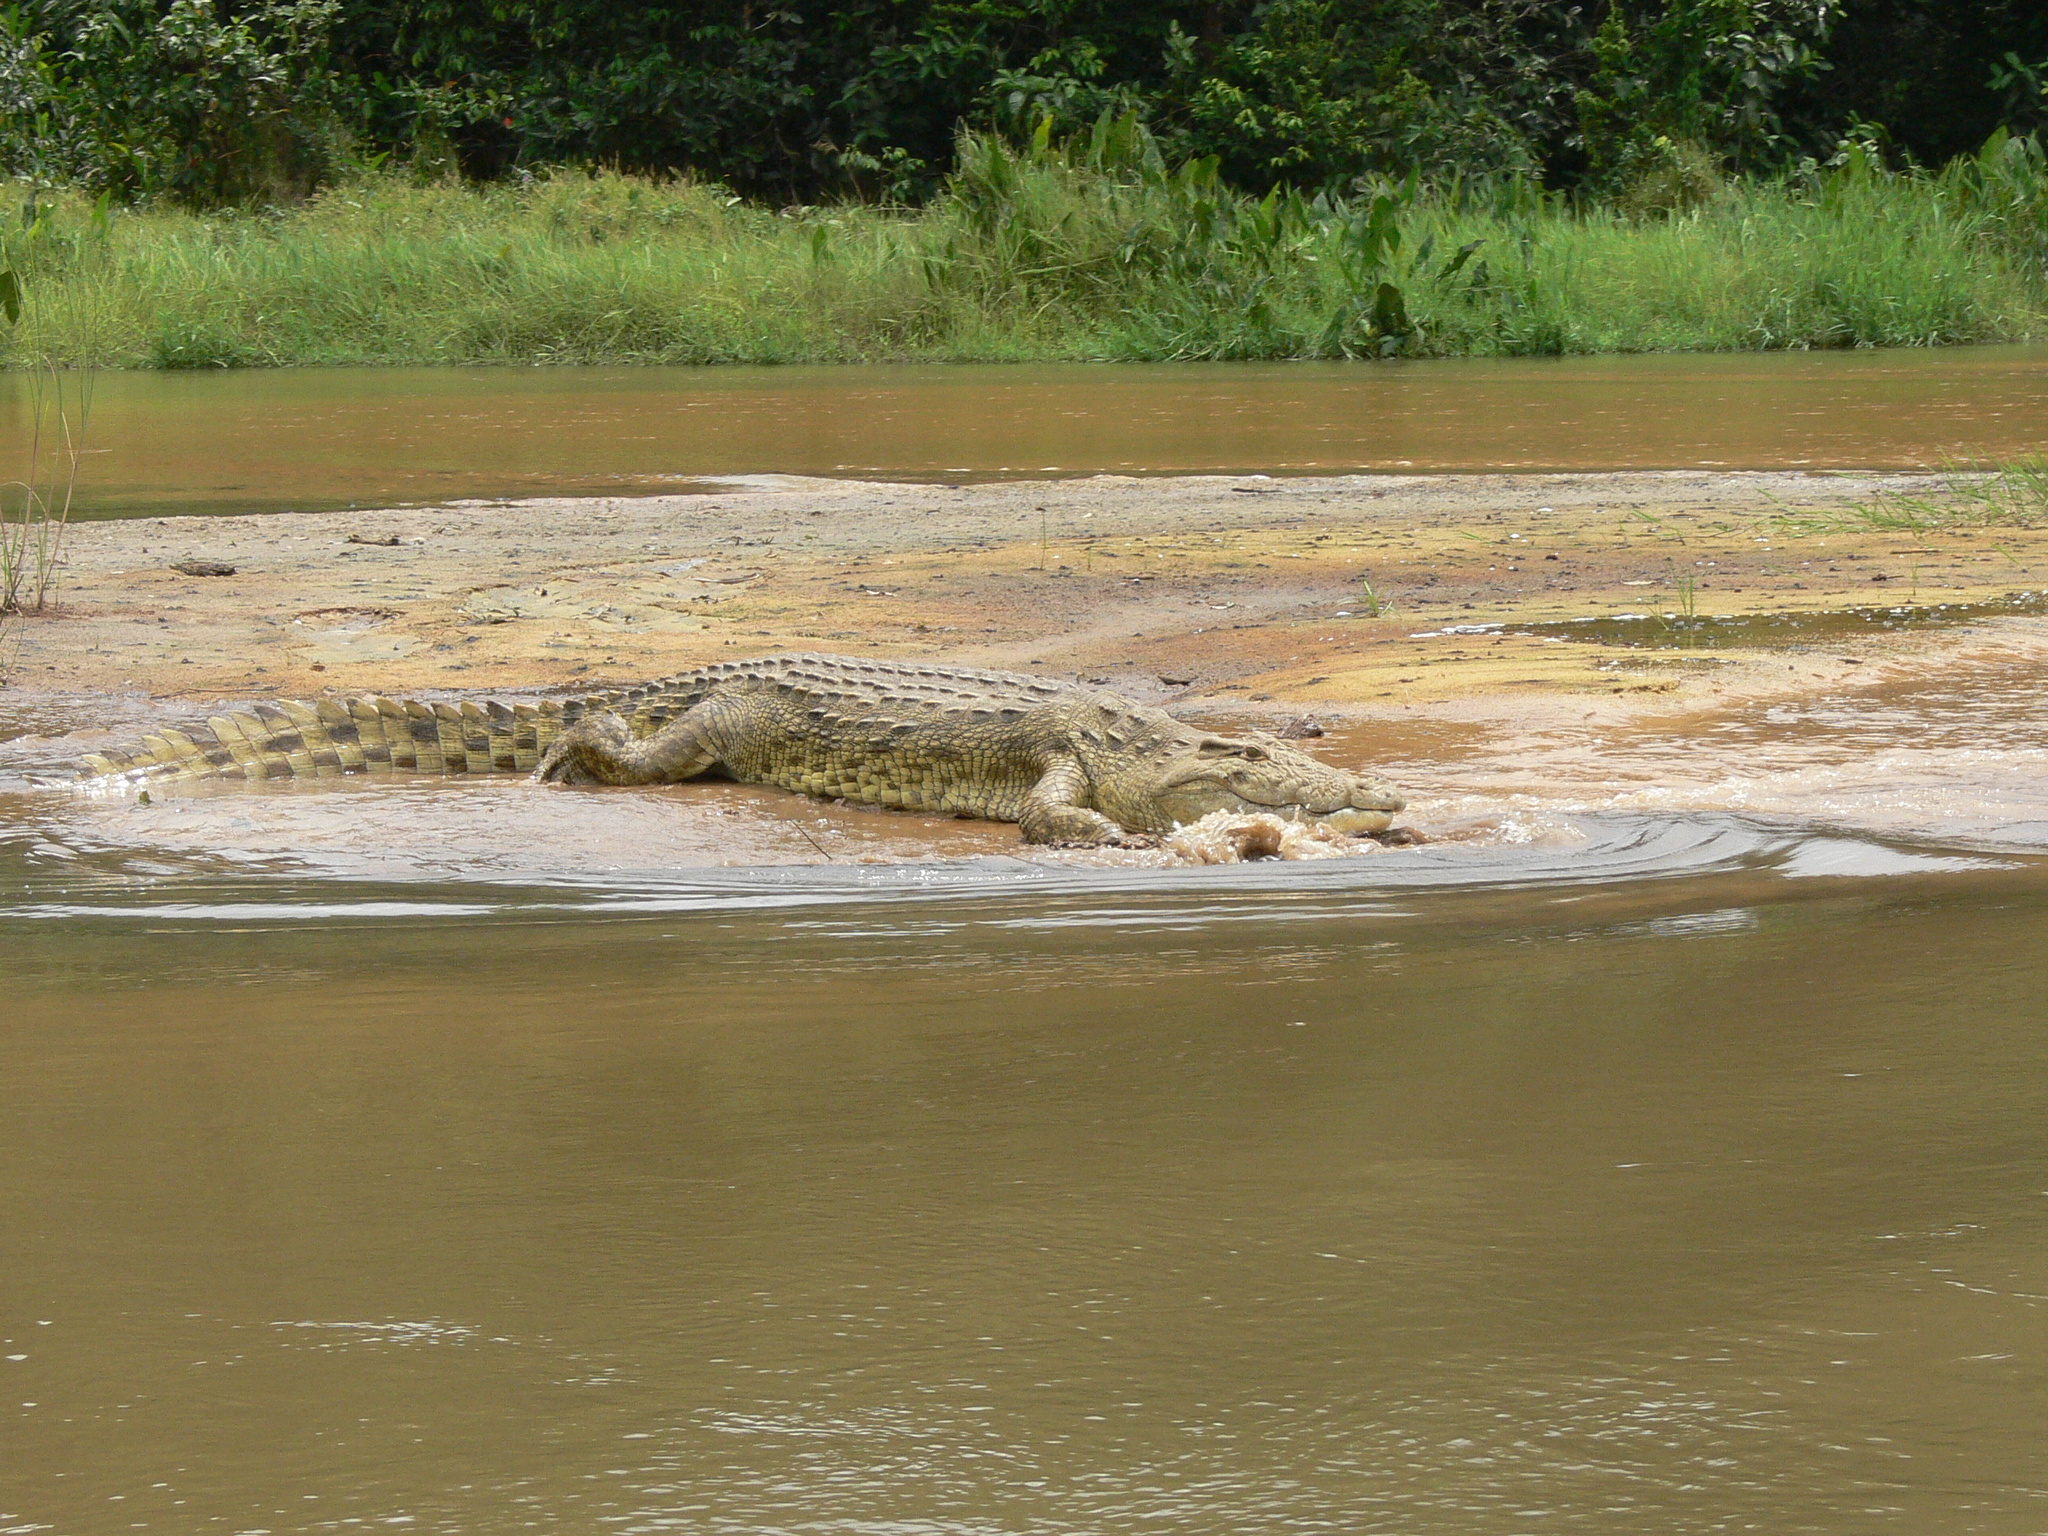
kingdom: Animalia
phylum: Chordata
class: Crocodylia
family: Crocodylidae
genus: Crocodylus
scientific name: Crocodylus niloticus
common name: Nile crocodile
